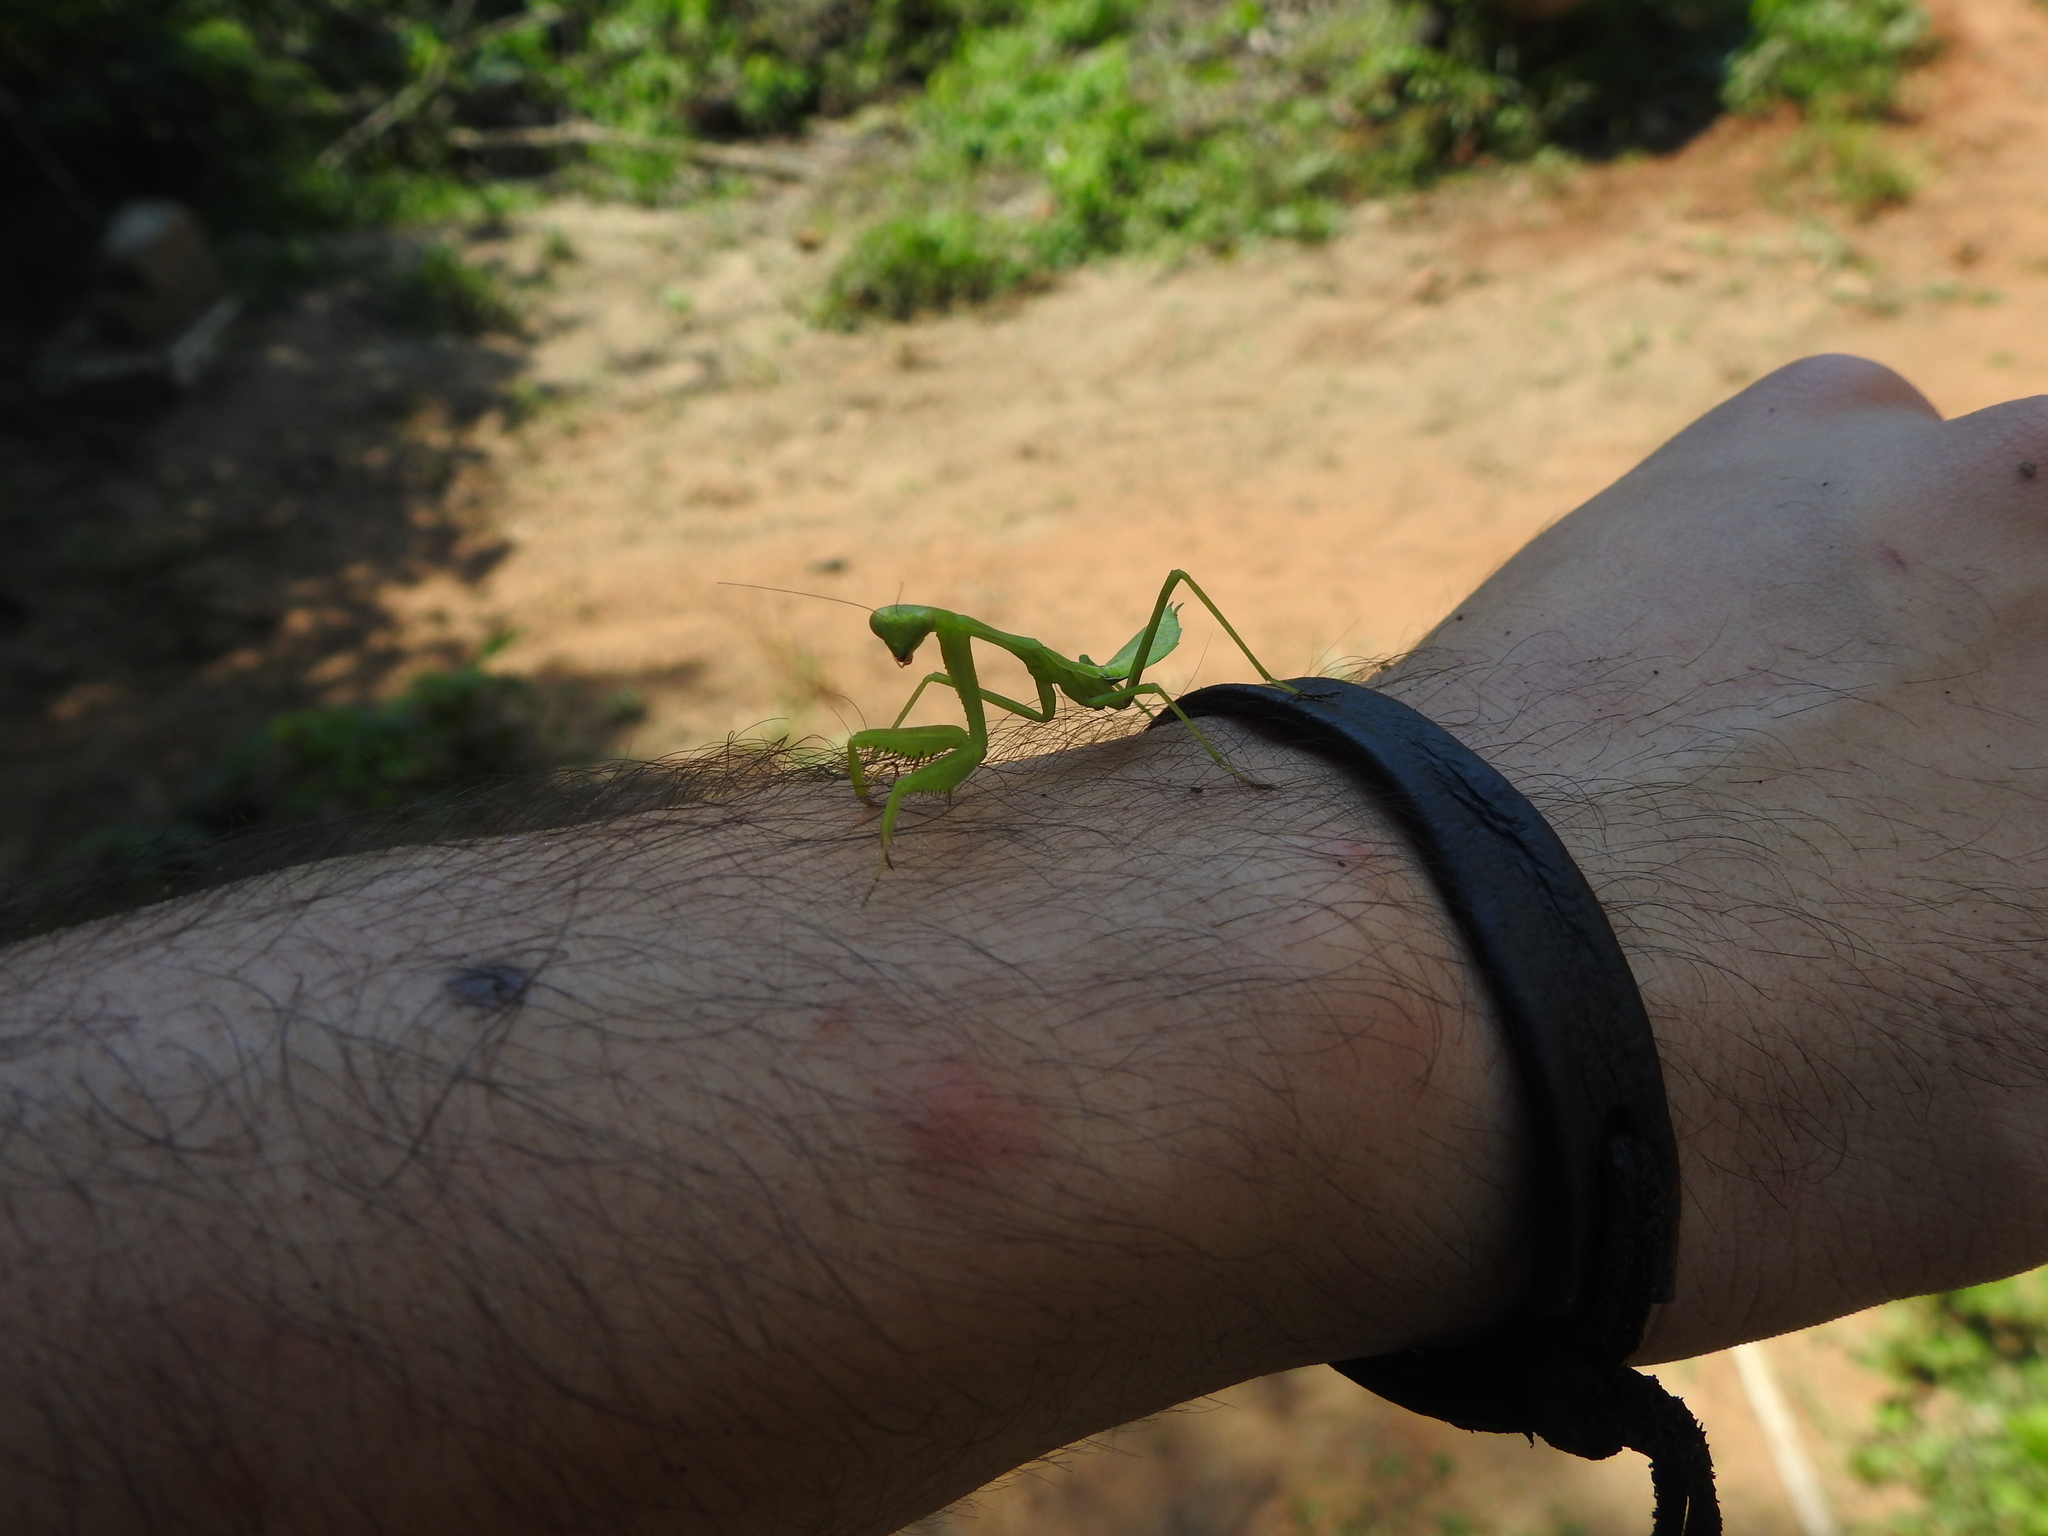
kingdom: Animalia
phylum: Arthropoda
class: Insecta
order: Mantodea
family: Mantidae
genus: Stagmomantis
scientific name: Stagmomantis limbata
